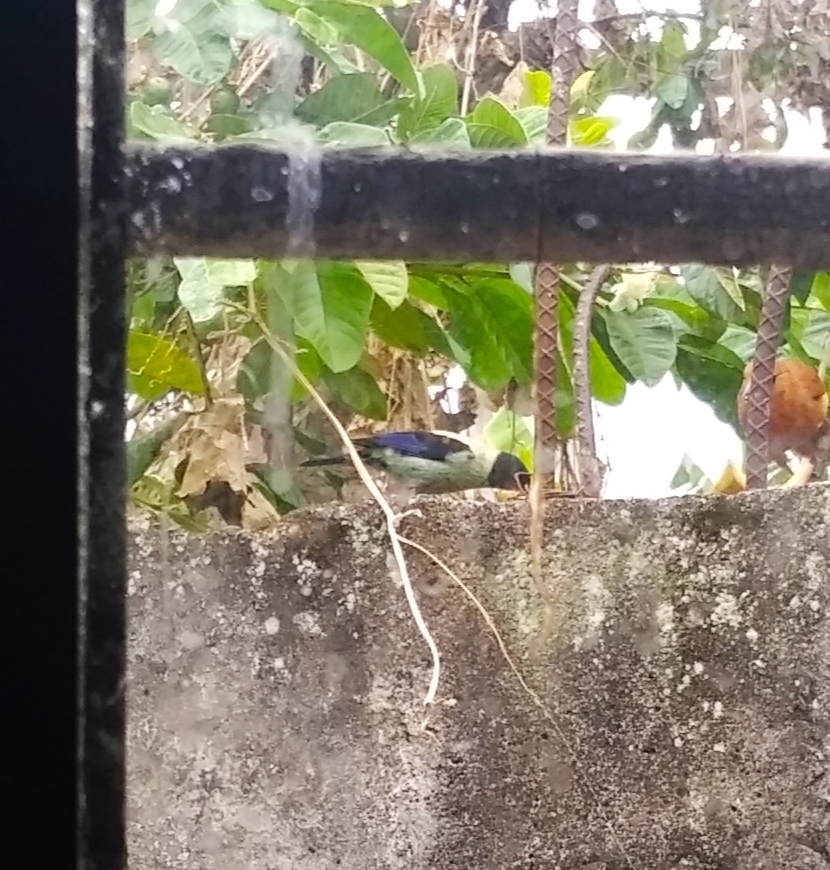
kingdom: Animalia
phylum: Chordata
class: Aves
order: Passeriformes
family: Thraupidae
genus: Stilpnia
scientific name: Stilpnia cyanoptera
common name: Black-headed tanager
